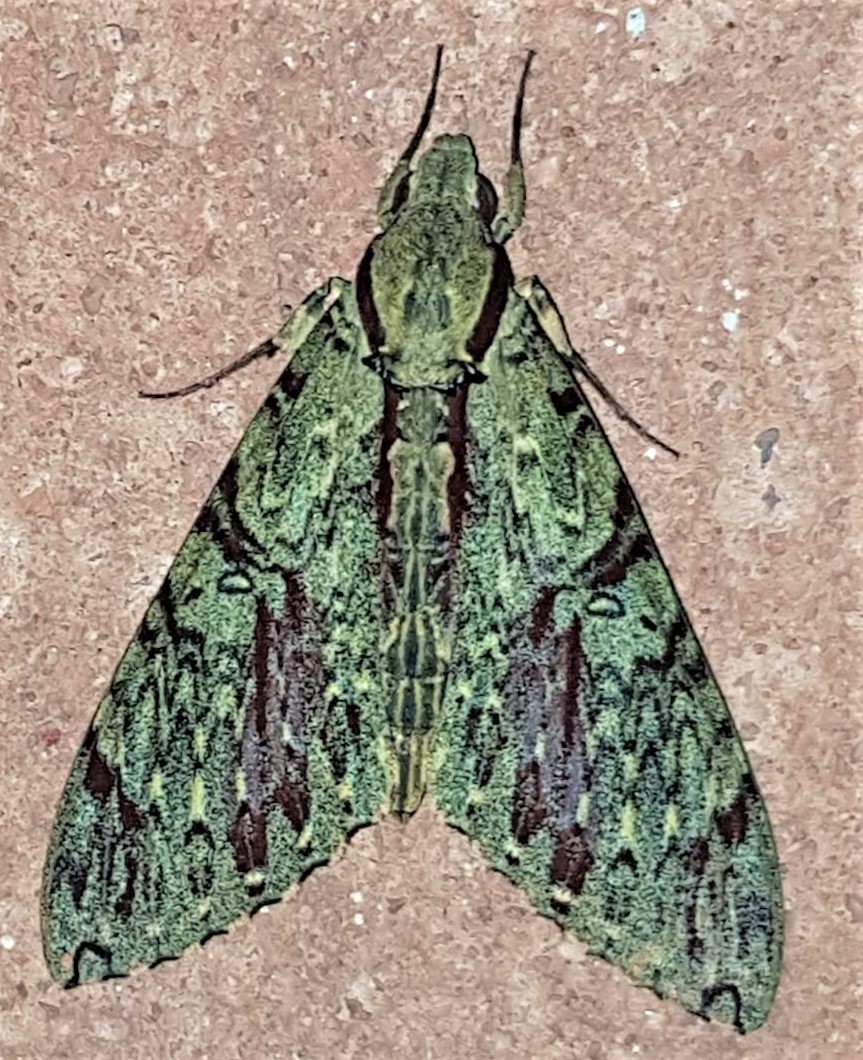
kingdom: Animalia
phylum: Arthropoda
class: Insecta
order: Lepidoptera
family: Sphingidae
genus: Amphimoea
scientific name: Amphimoea walkeri
